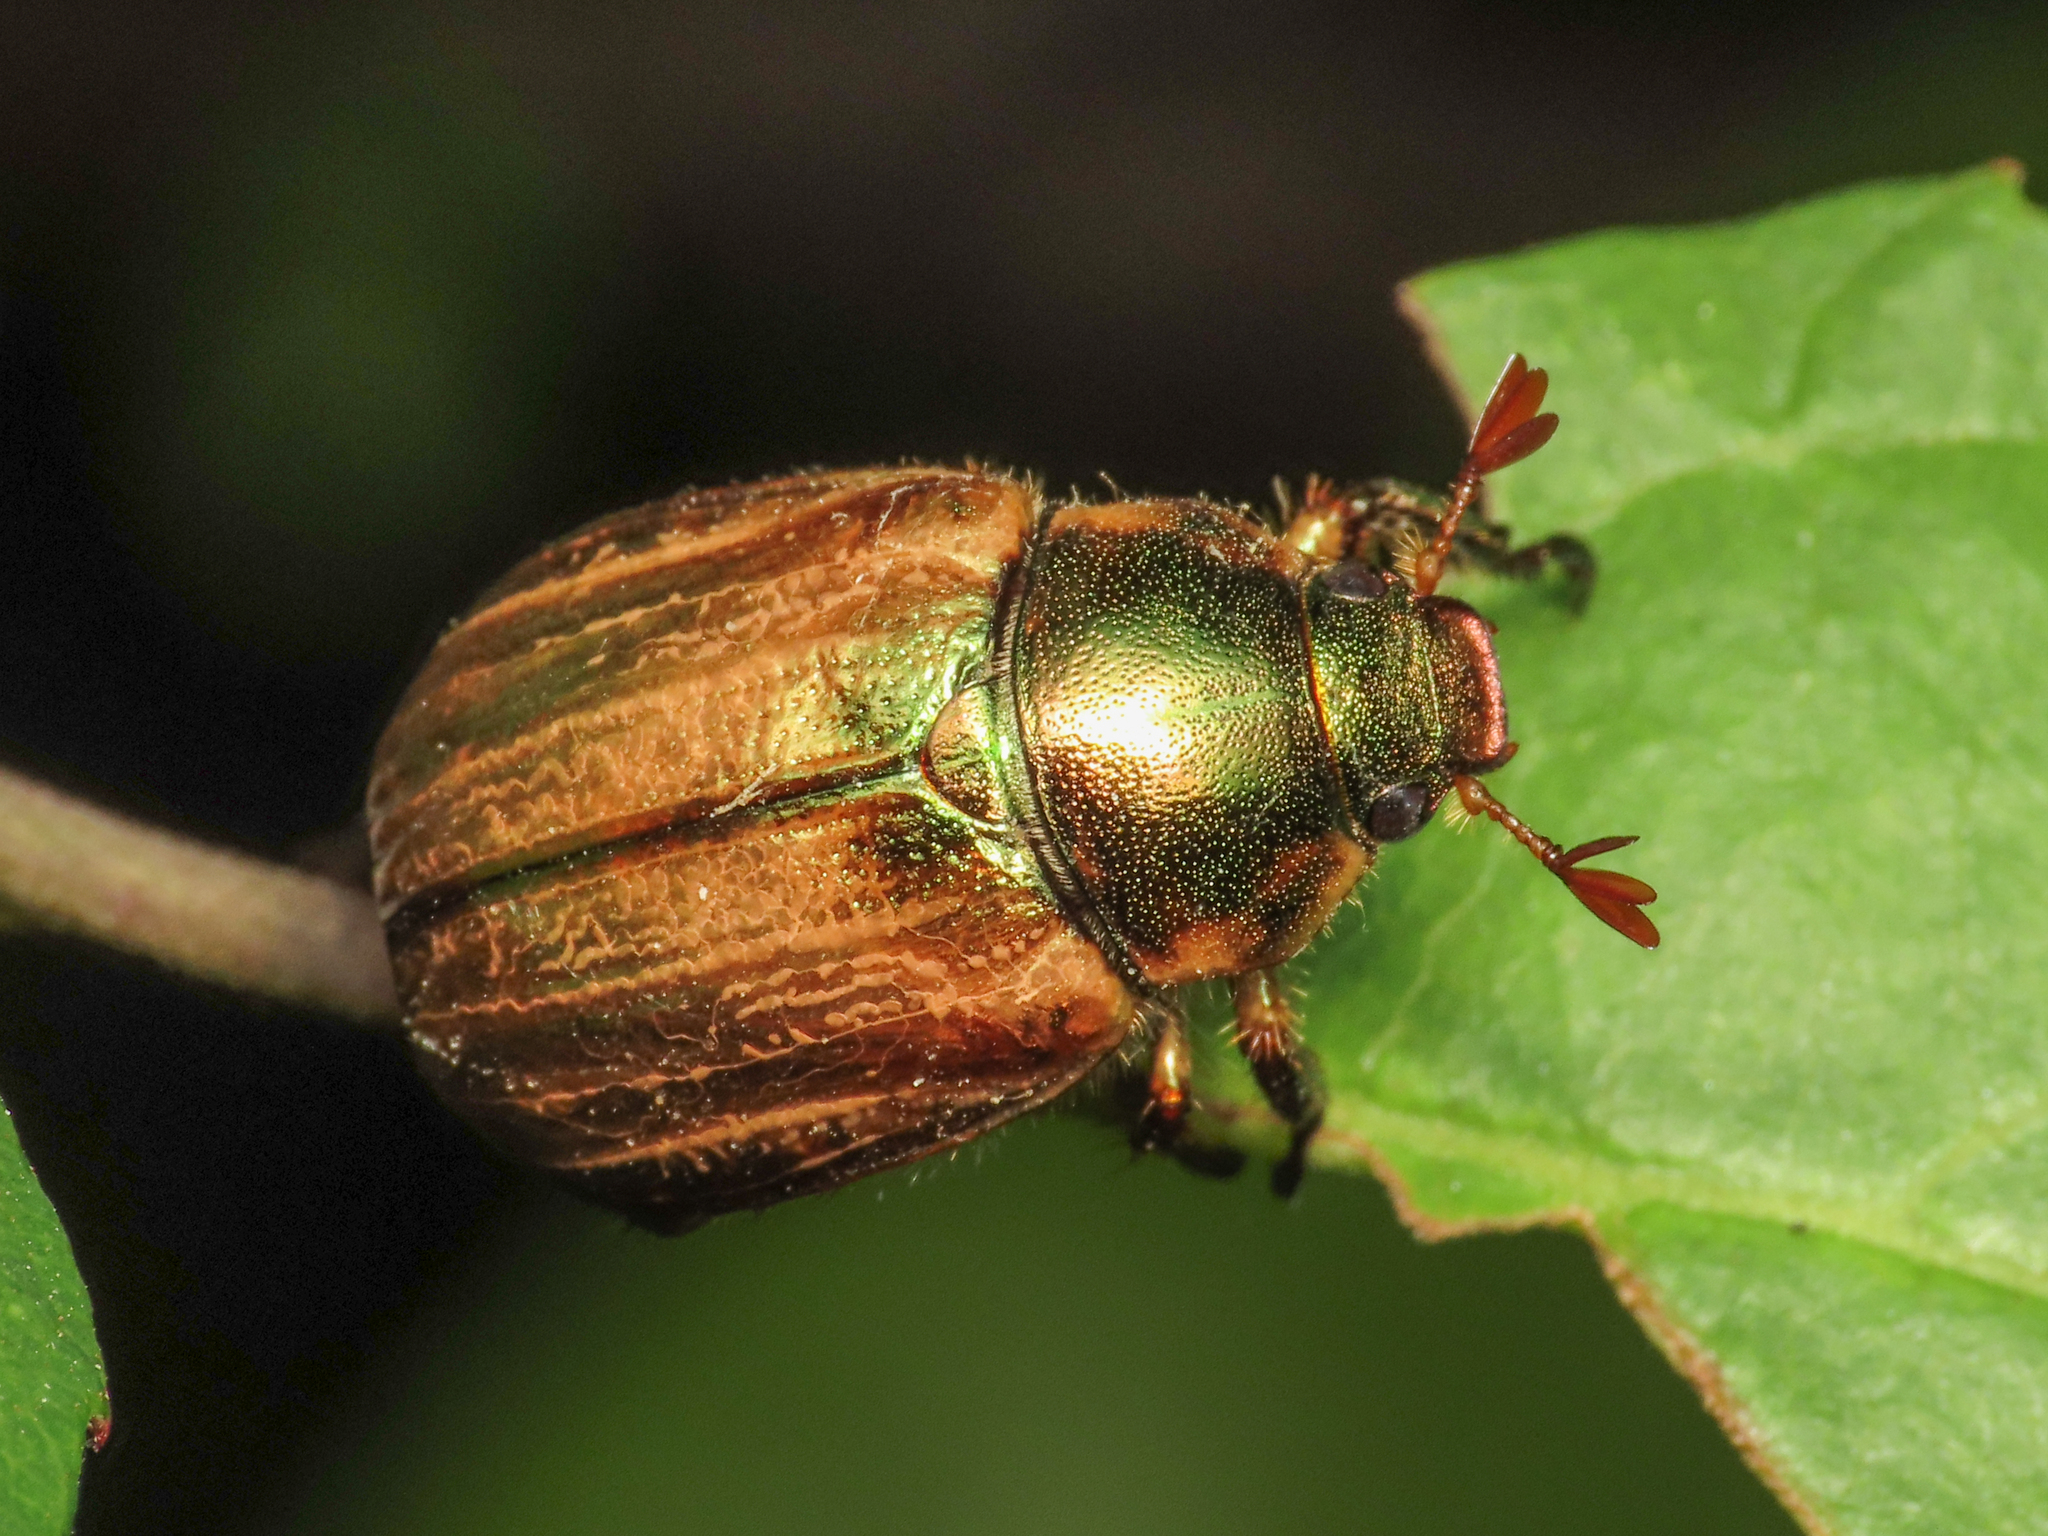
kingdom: Animalia
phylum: Arthropoda
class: Insecta
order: Coleoptera
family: Scarabaeidae
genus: Mimela
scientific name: Mimela junii
